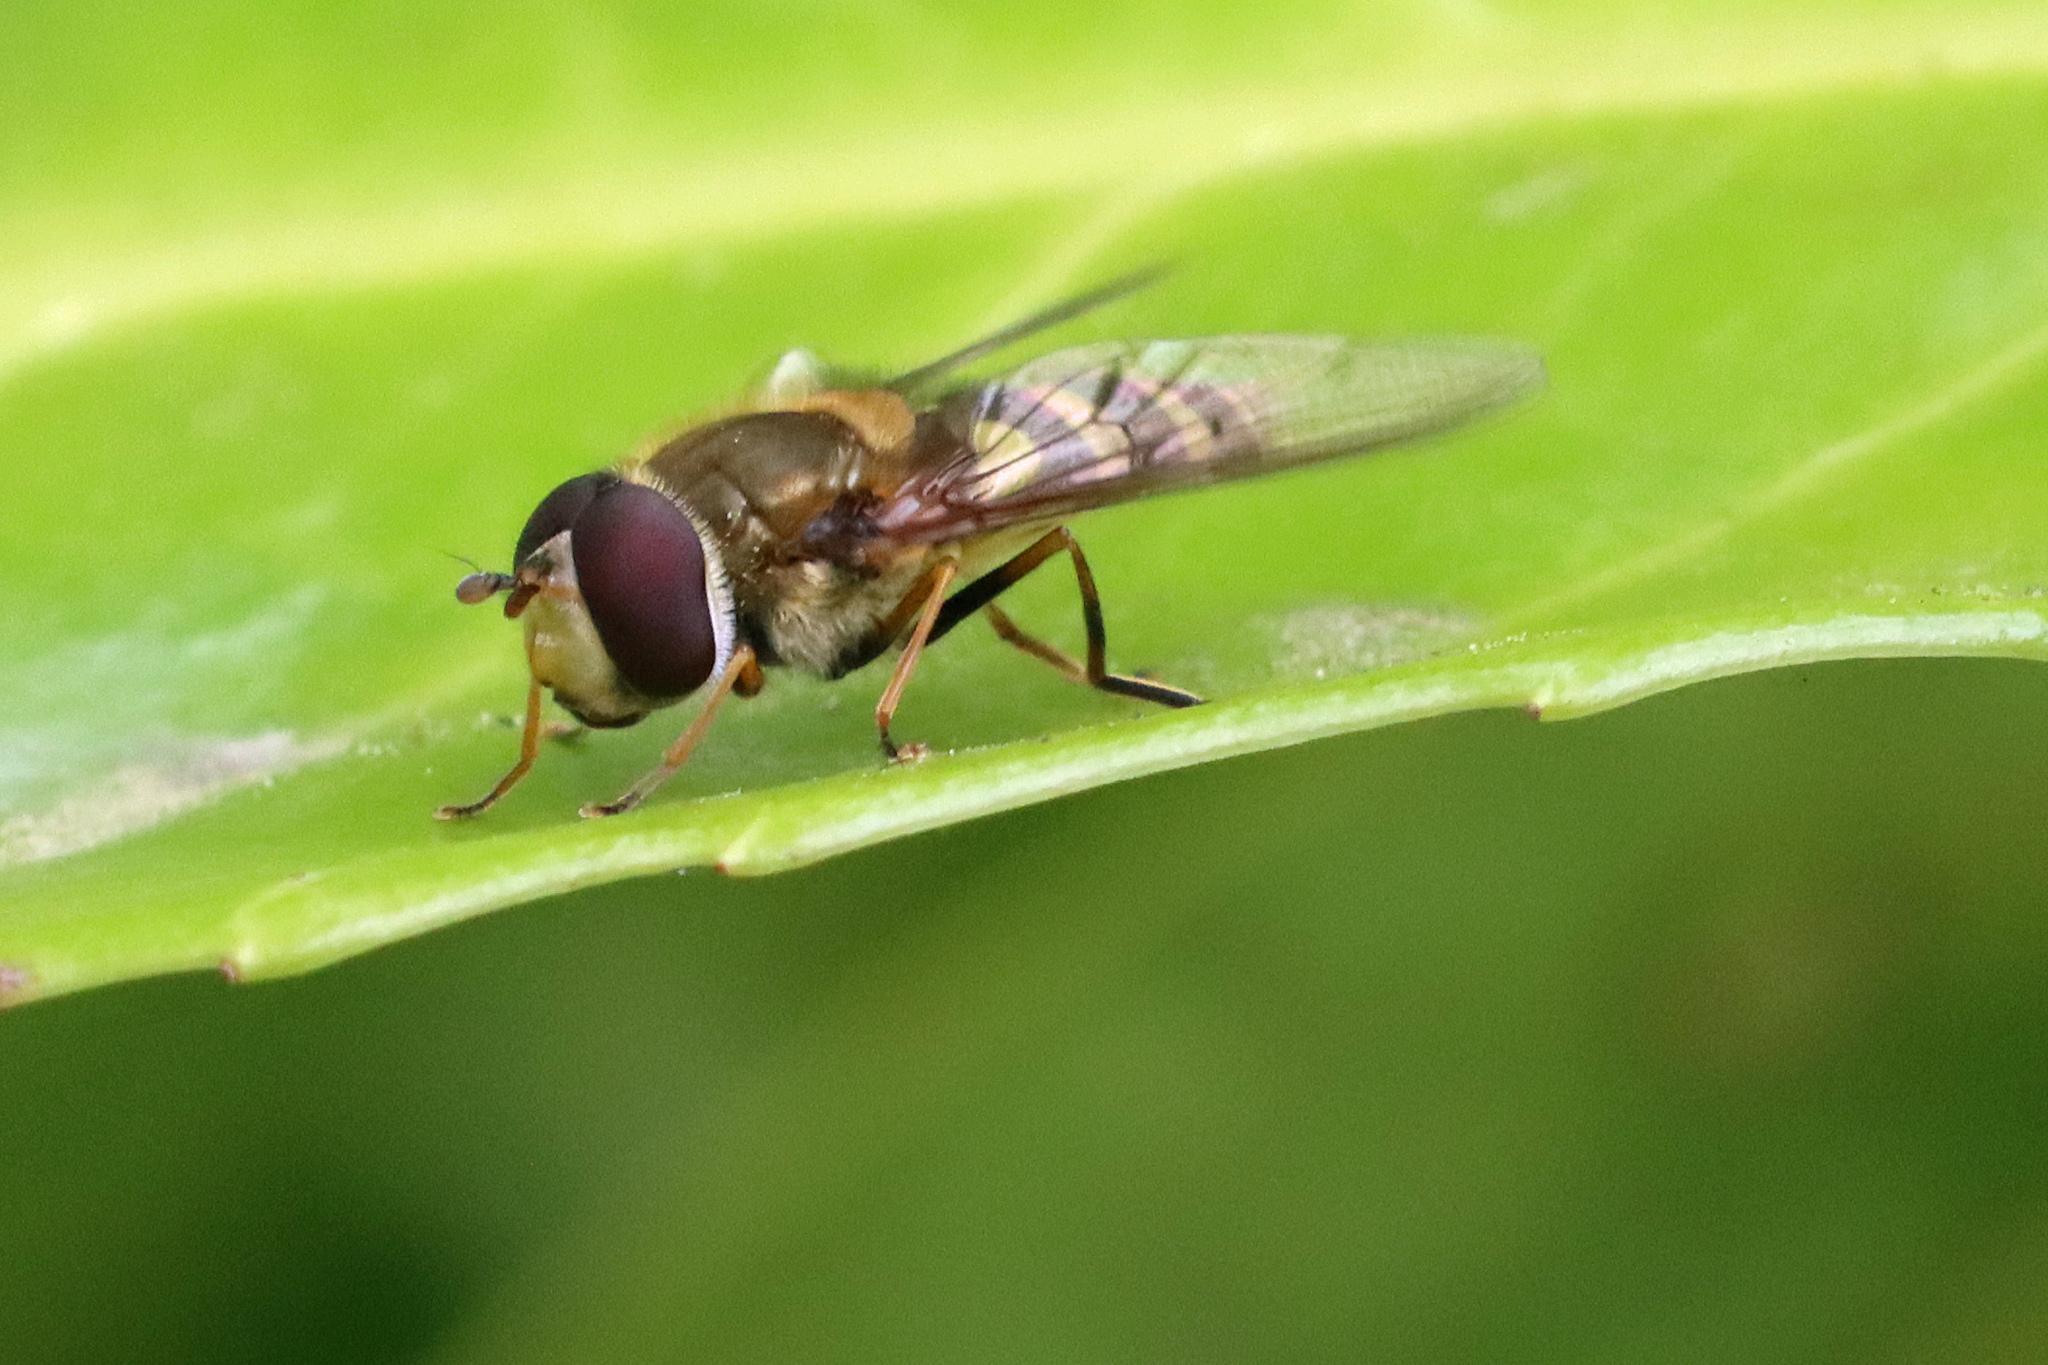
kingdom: Animalia
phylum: Arthropoda
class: Insecta
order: Diptera
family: Syrphidae
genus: Syrphus
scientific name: Syrphus
